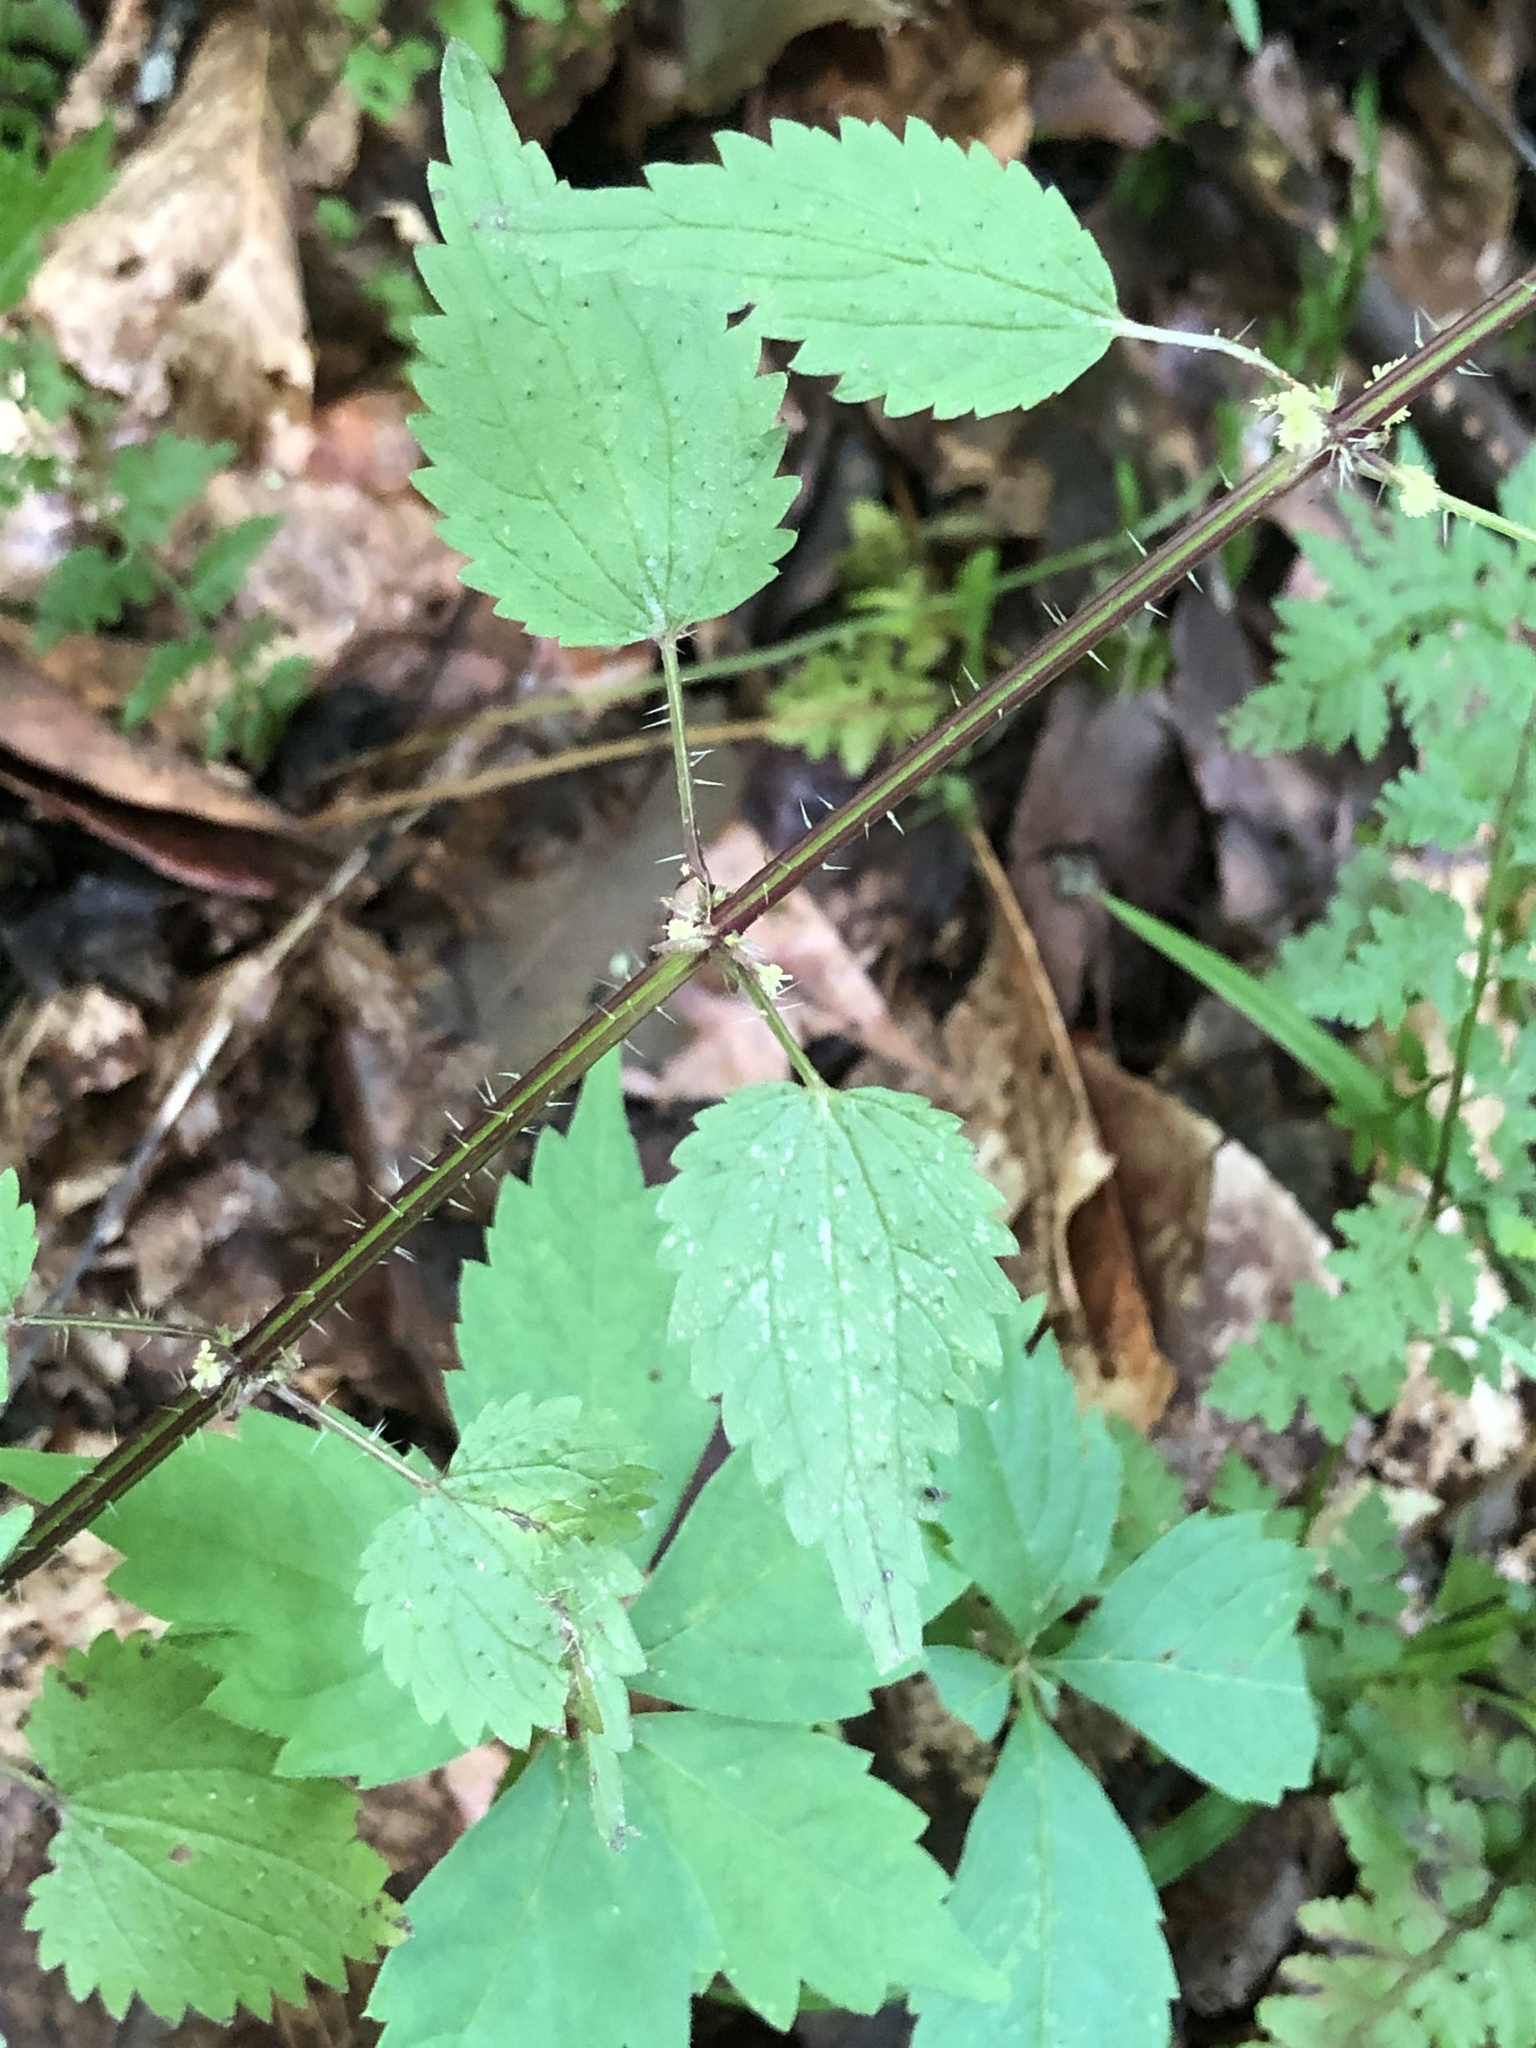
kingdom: Plantae
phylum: Tracheophyta
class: Magnoliopsida
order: Rosales
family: Urticaceae
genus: Urtica
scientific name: Urtica chamaedryoides
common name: Heart-leaf nettle
